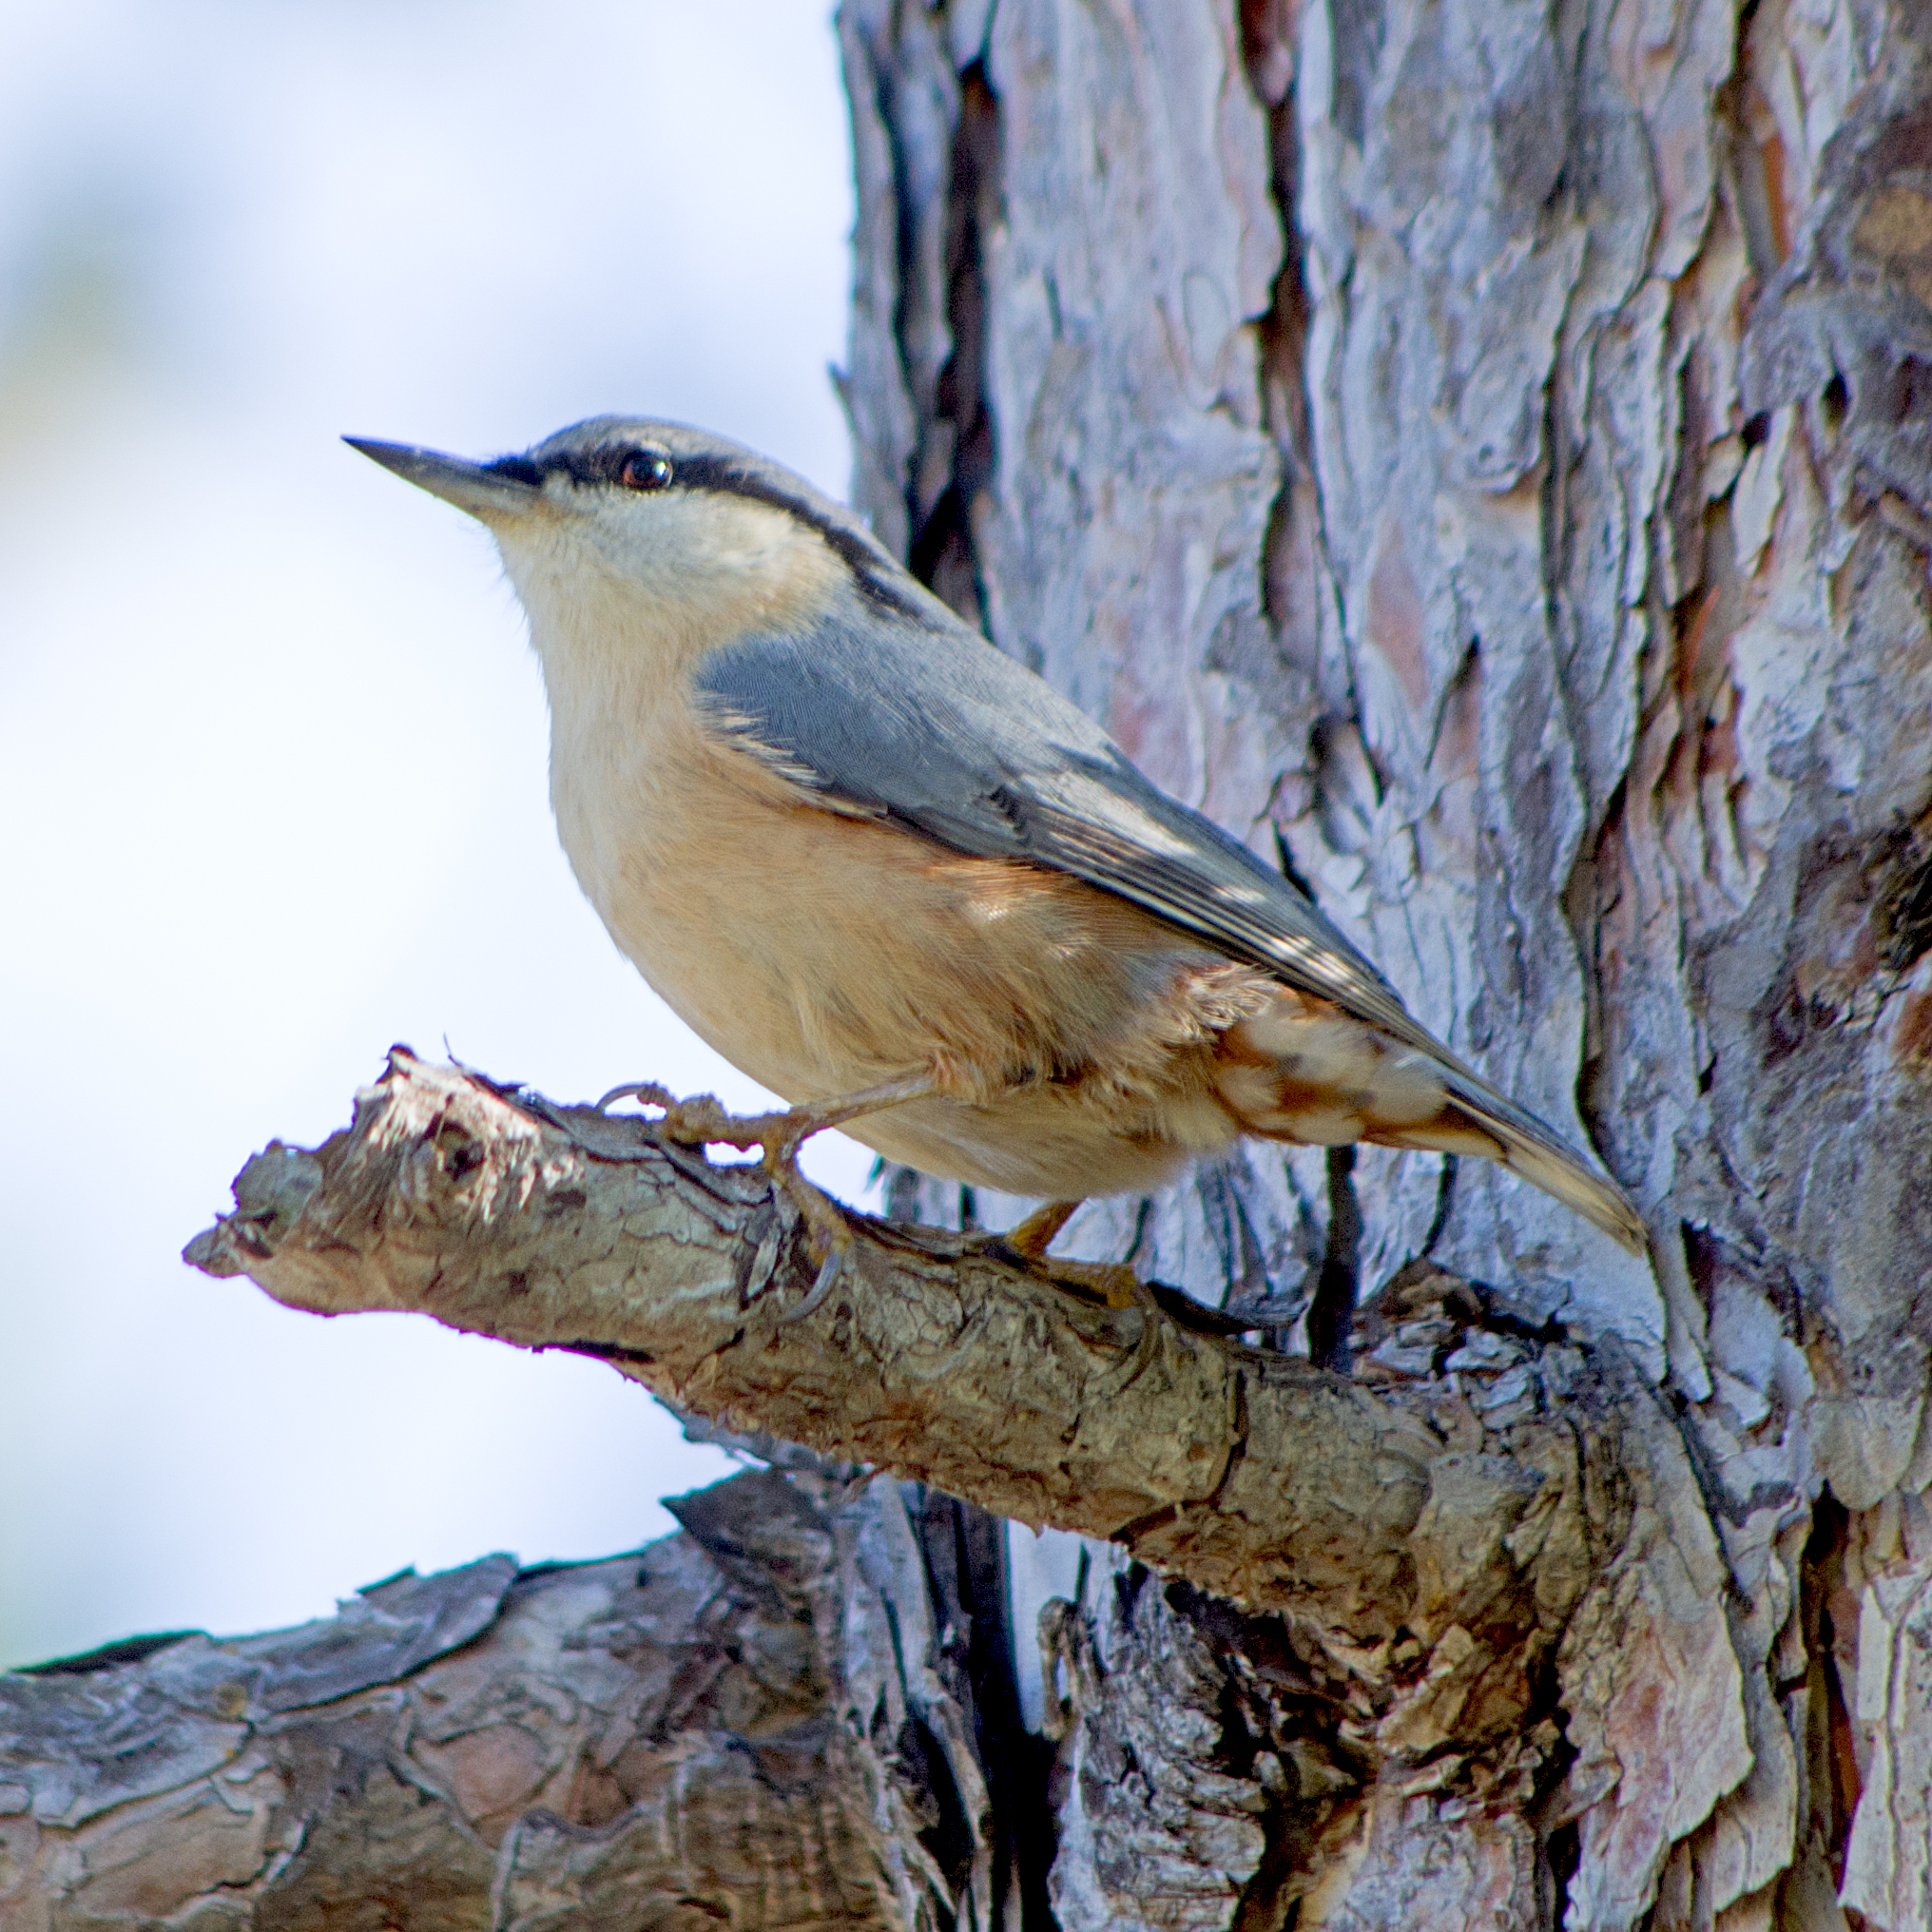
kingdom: Animalia
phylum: Chordata
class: Aves
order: Passeriformes
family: Sittidae
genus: Sitta
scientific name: Sitta europaea
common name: Eurasian nuthatch
